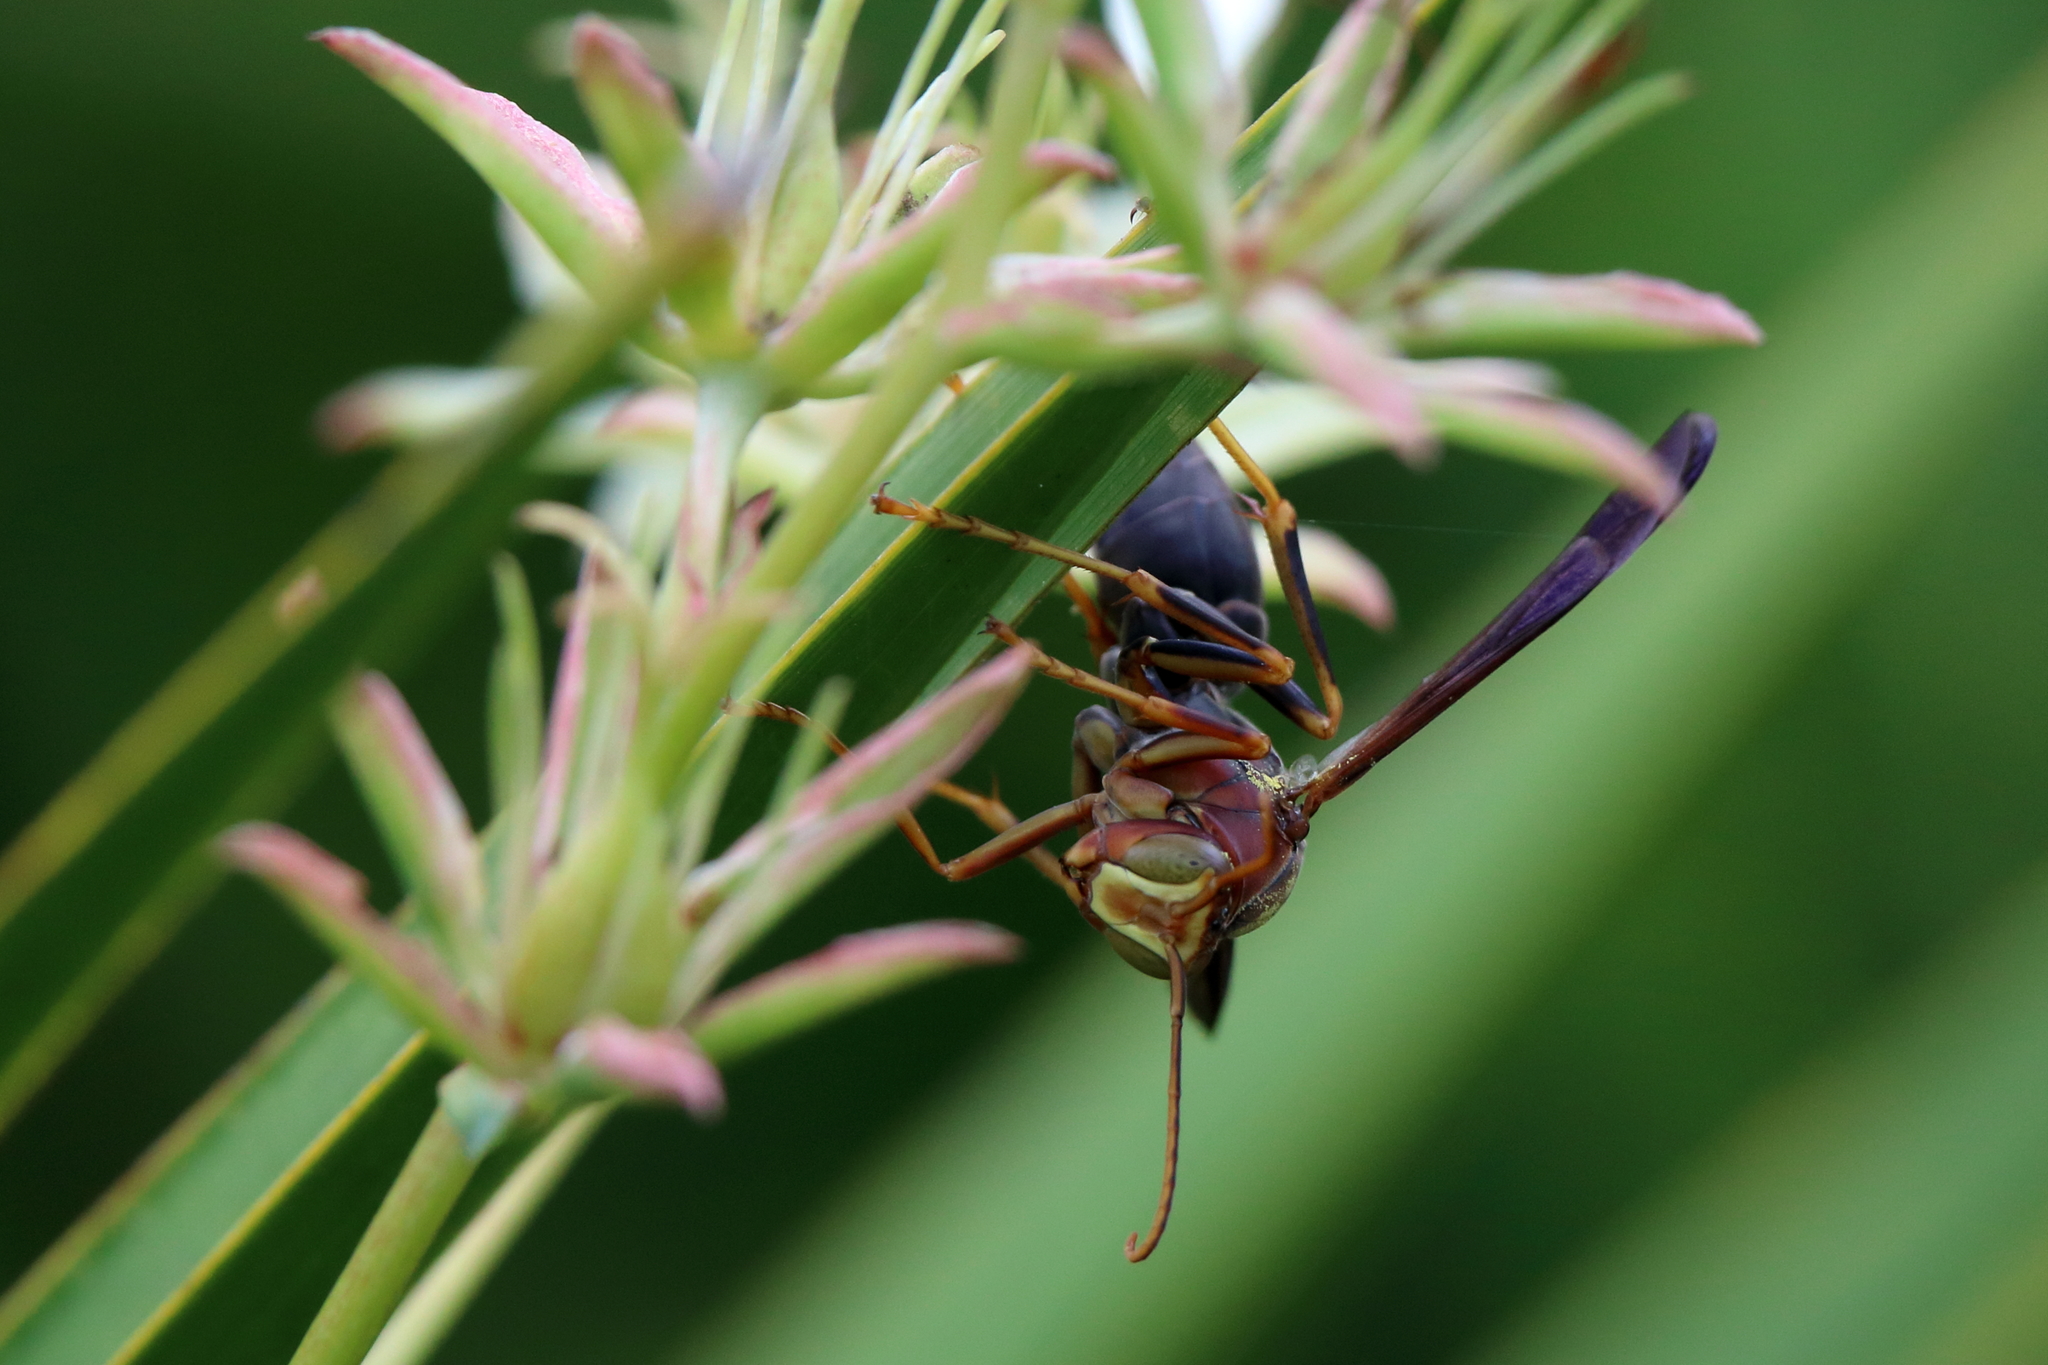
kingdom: Animalia
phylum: Arthropoda
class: Insecta
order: Hymenoptera
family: Eumenidae
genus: Polistes
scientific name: Polistes metricus
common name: Metric paper wasp
